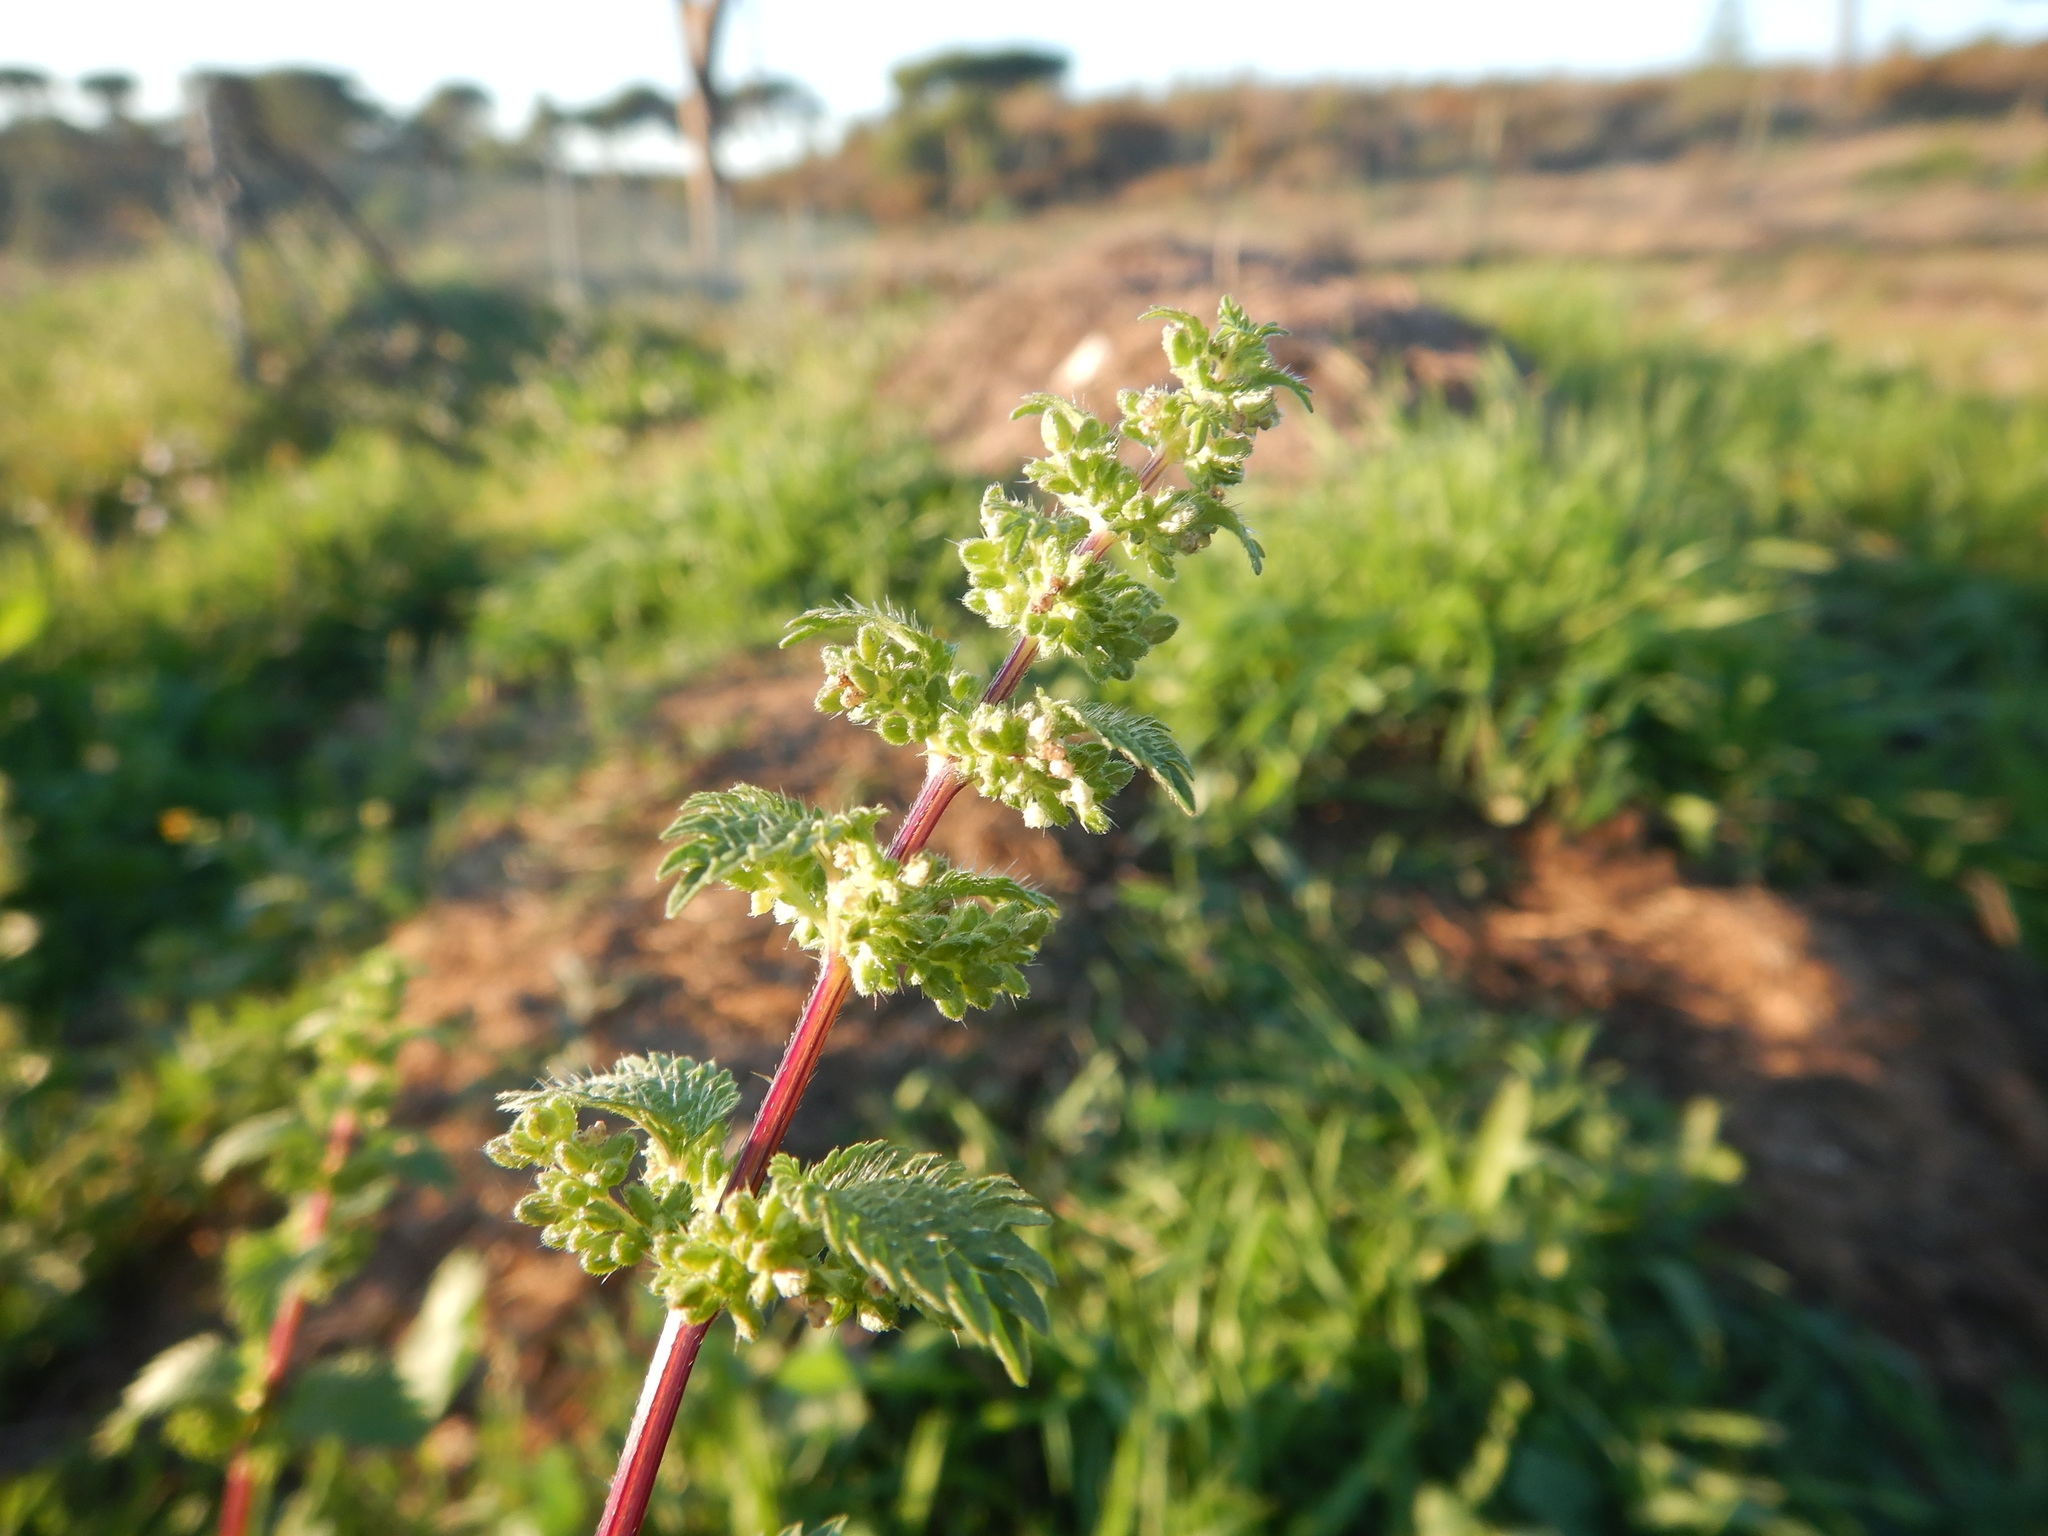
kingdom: Plantae
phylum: Tracheophyta
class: Magnoliopsida
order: Rosales
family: Urticaceae
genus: Urtica
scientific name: Urtica urens
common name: Dwarf nettle
